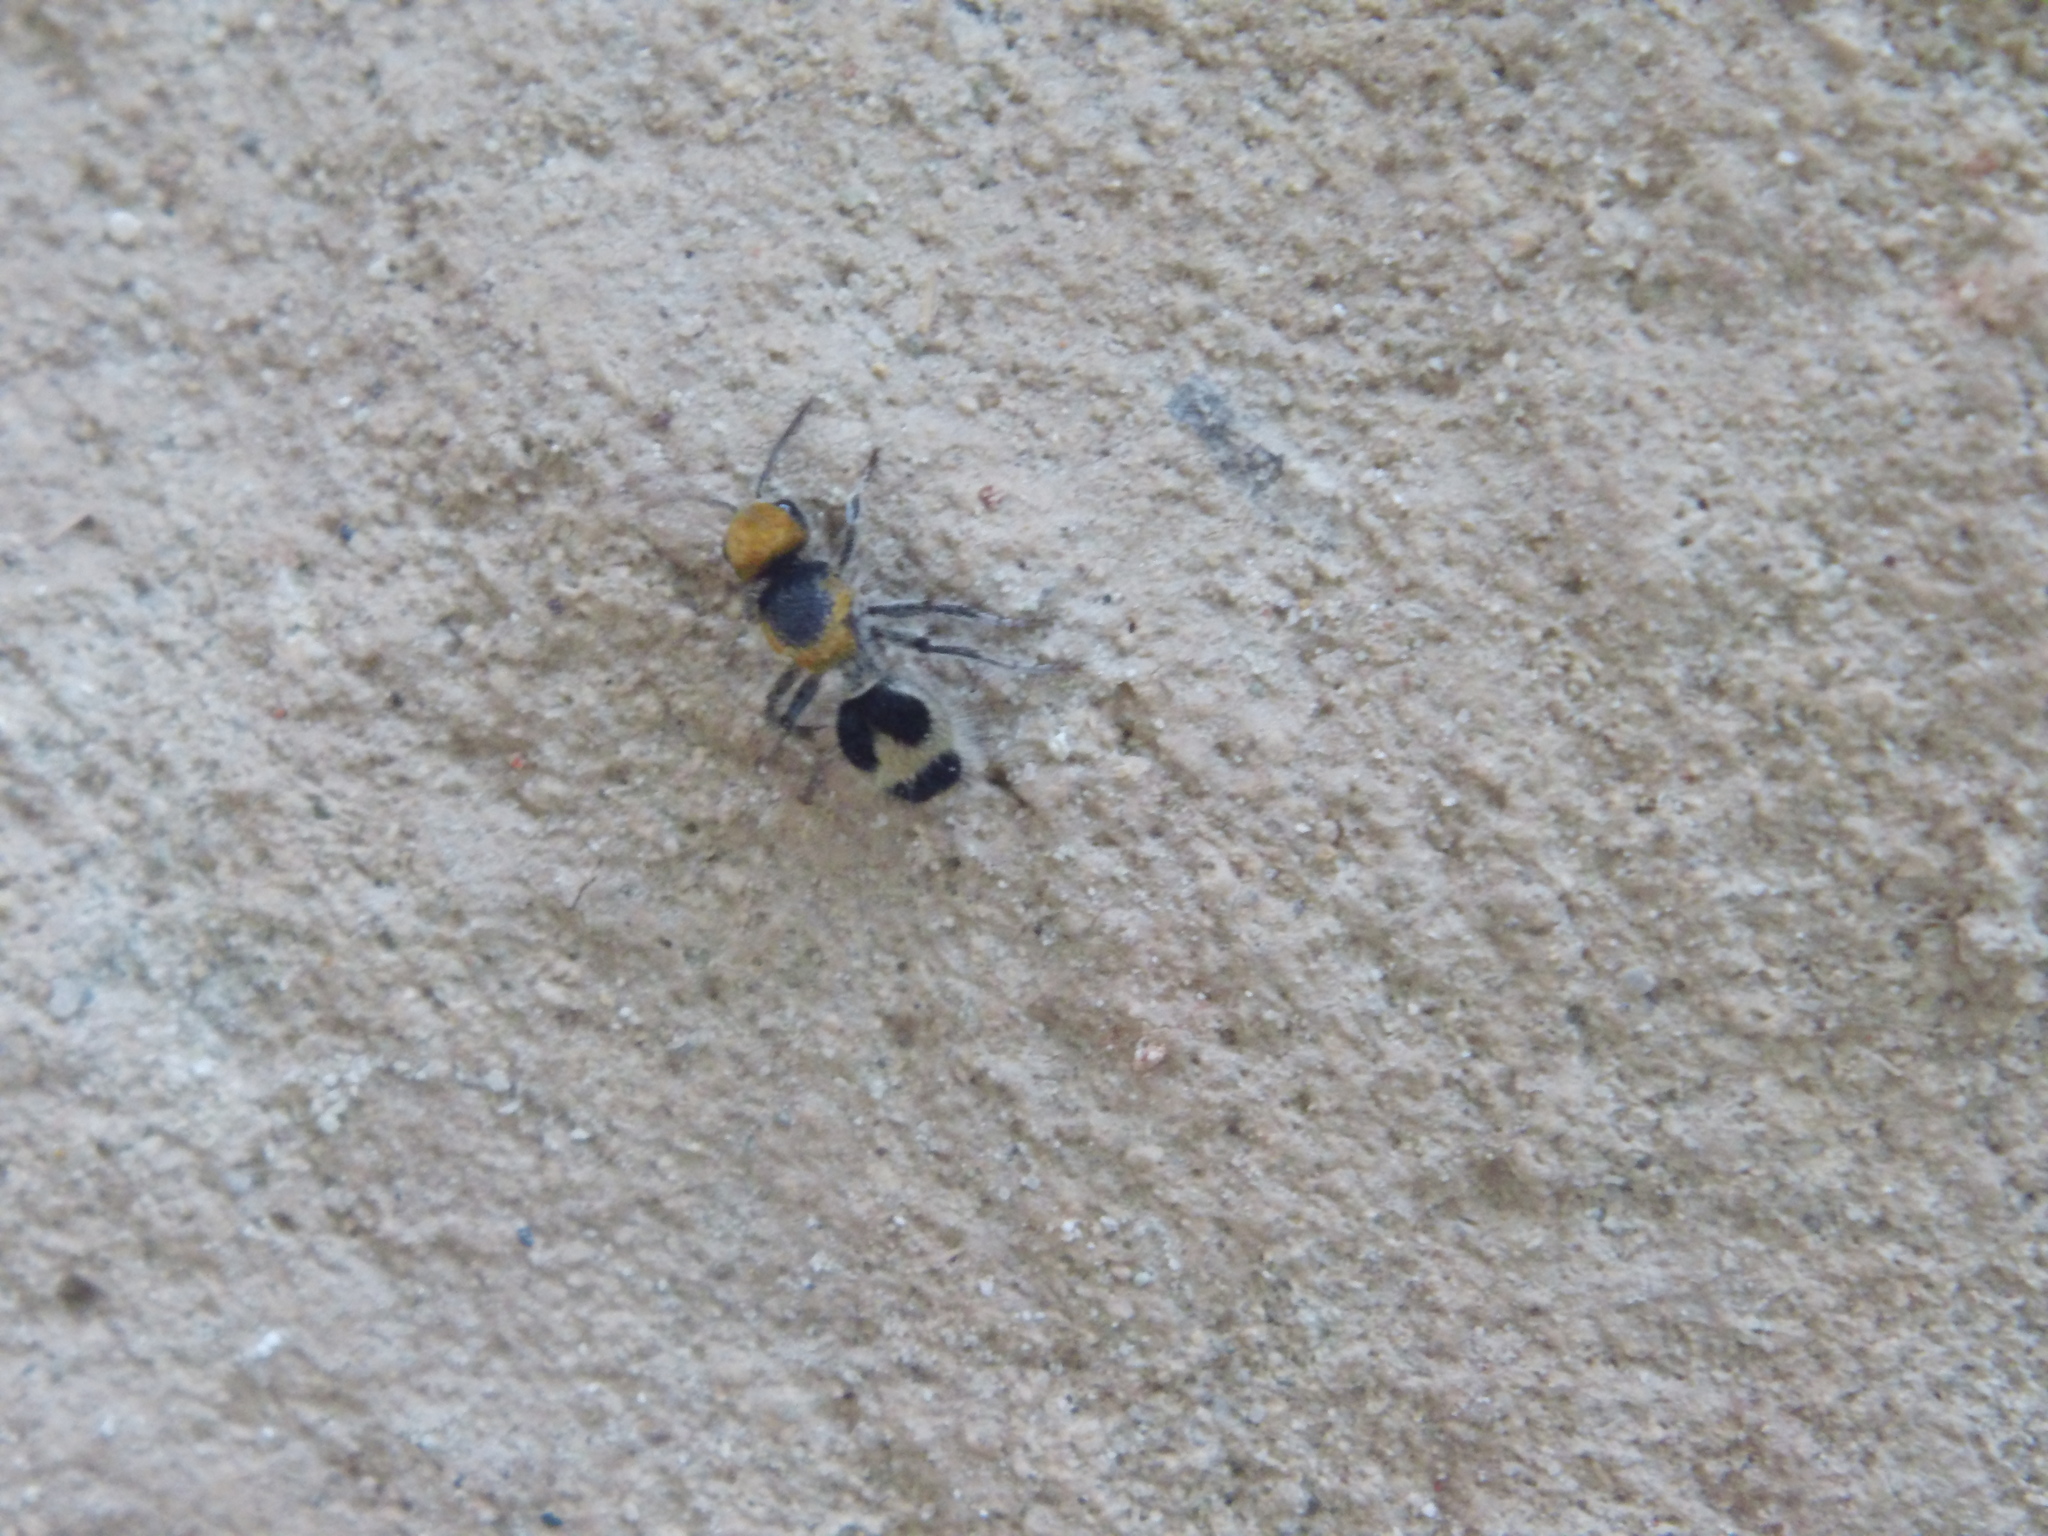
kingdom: Animalia
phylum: Arthropoda
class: Insecta
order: Hymenoptera
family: Mutillidae
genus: Dasymutilla
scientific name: Dasymutilla canella
